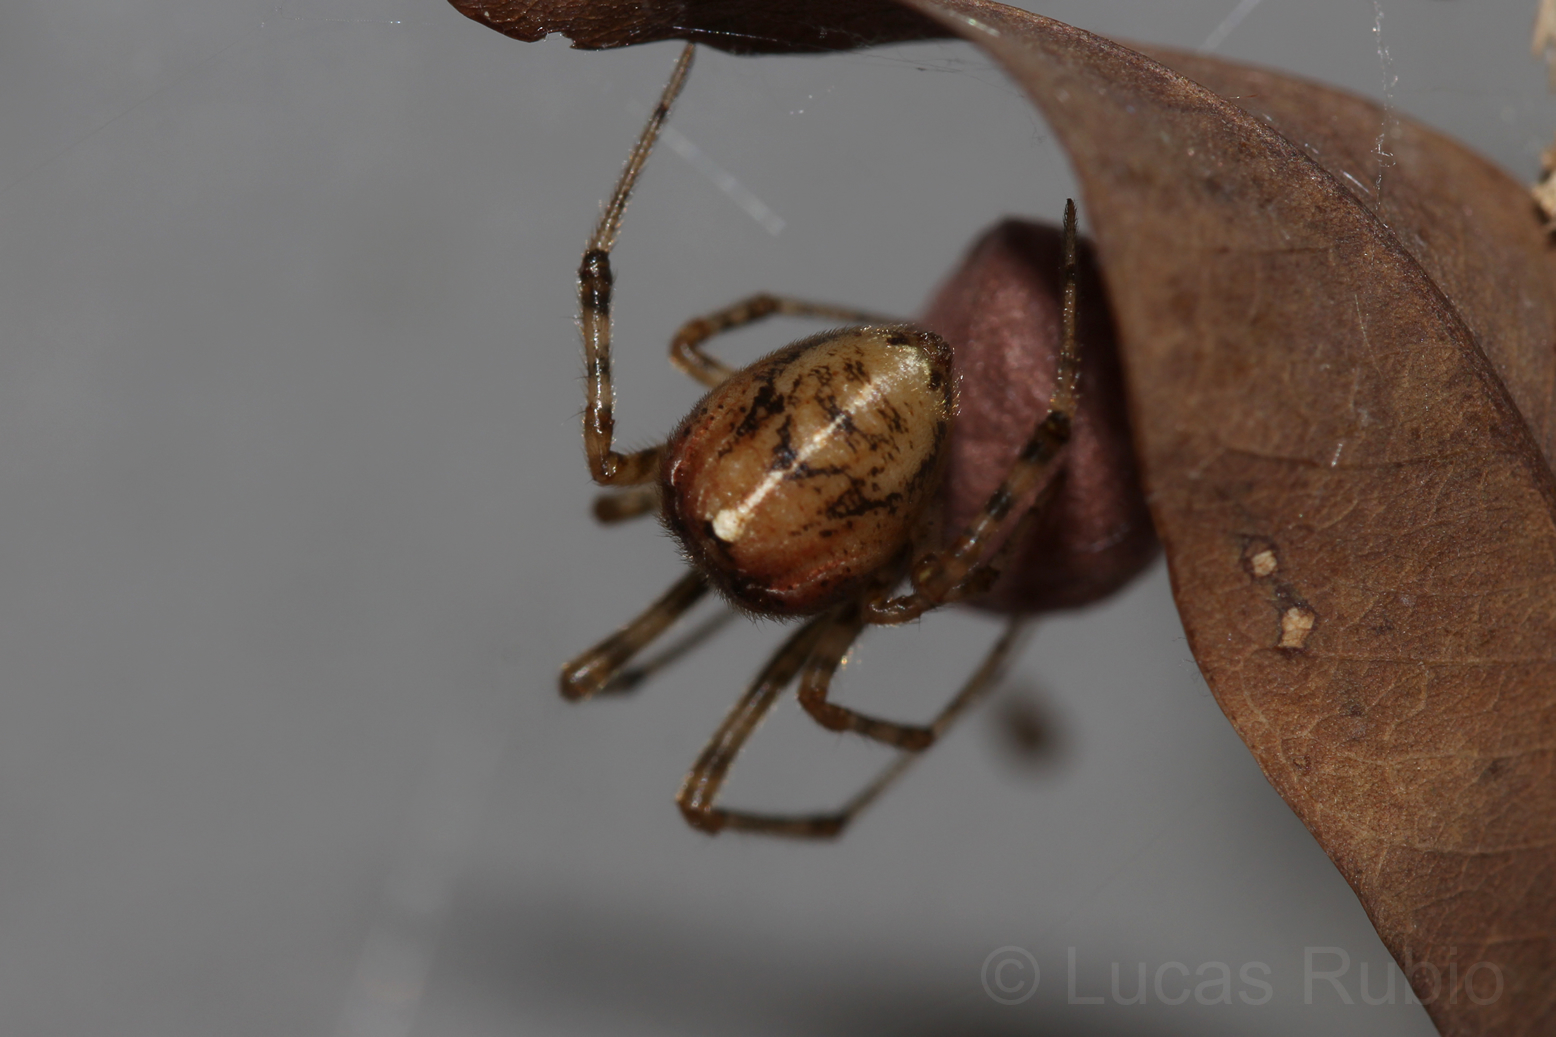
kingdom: Animalia
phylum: Arthropoda
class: Arachnida
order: Araneae
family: Theridiidae
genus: Tidarren
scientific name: Tidarren sisyphoides
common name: Cobweb spiders
